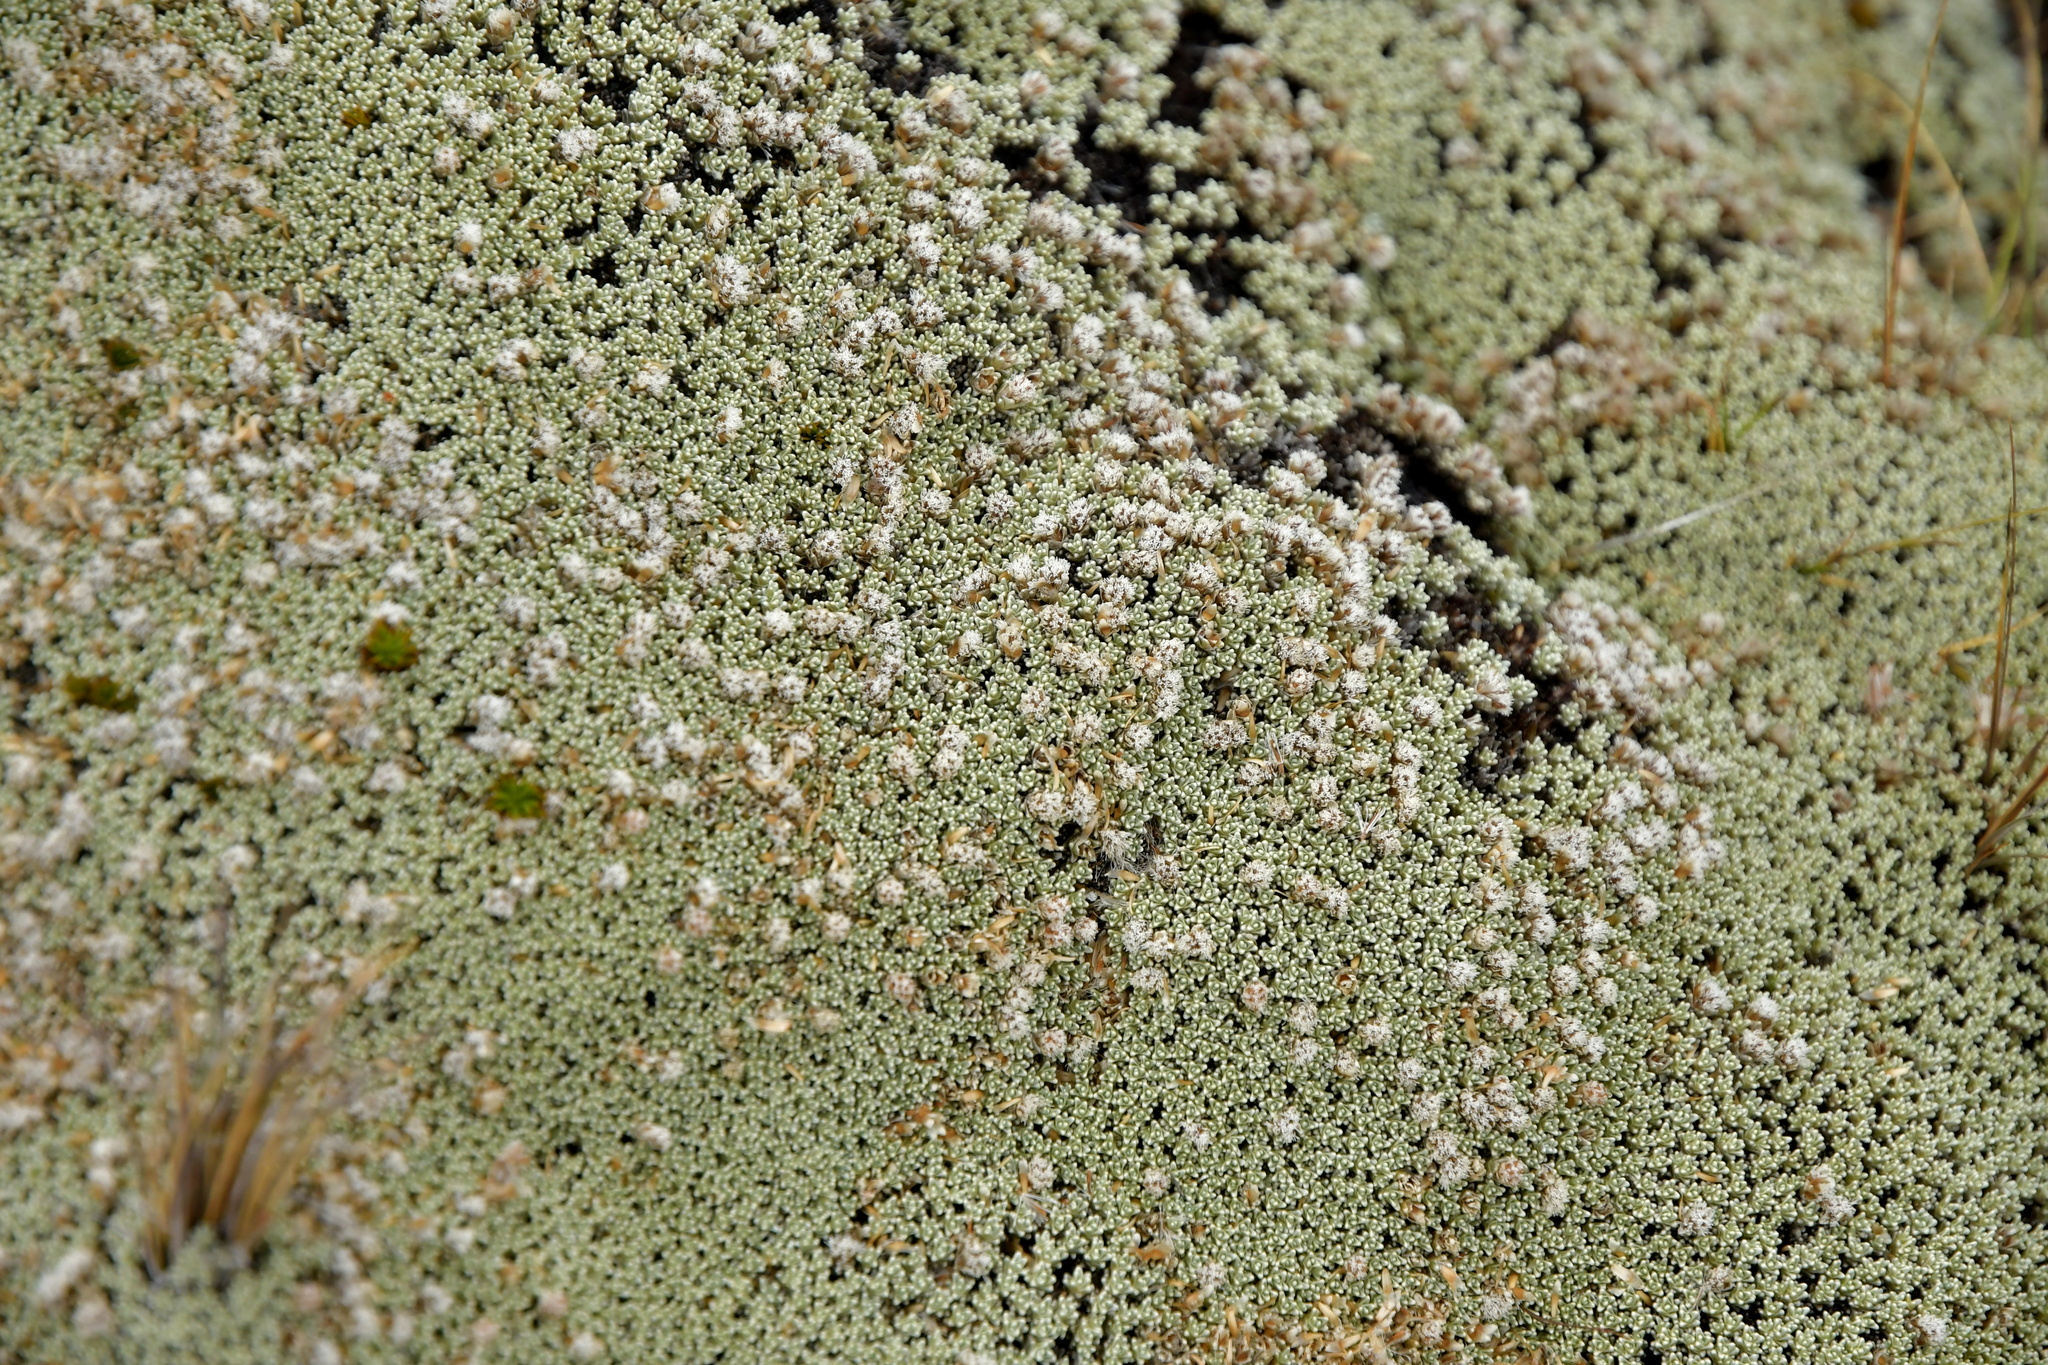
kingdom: Plantae
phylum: Tracheophyta
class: Magnoliopsida
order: Asterales
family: Asteraceae
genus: Raoulia
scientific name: Raoulia hectorii
